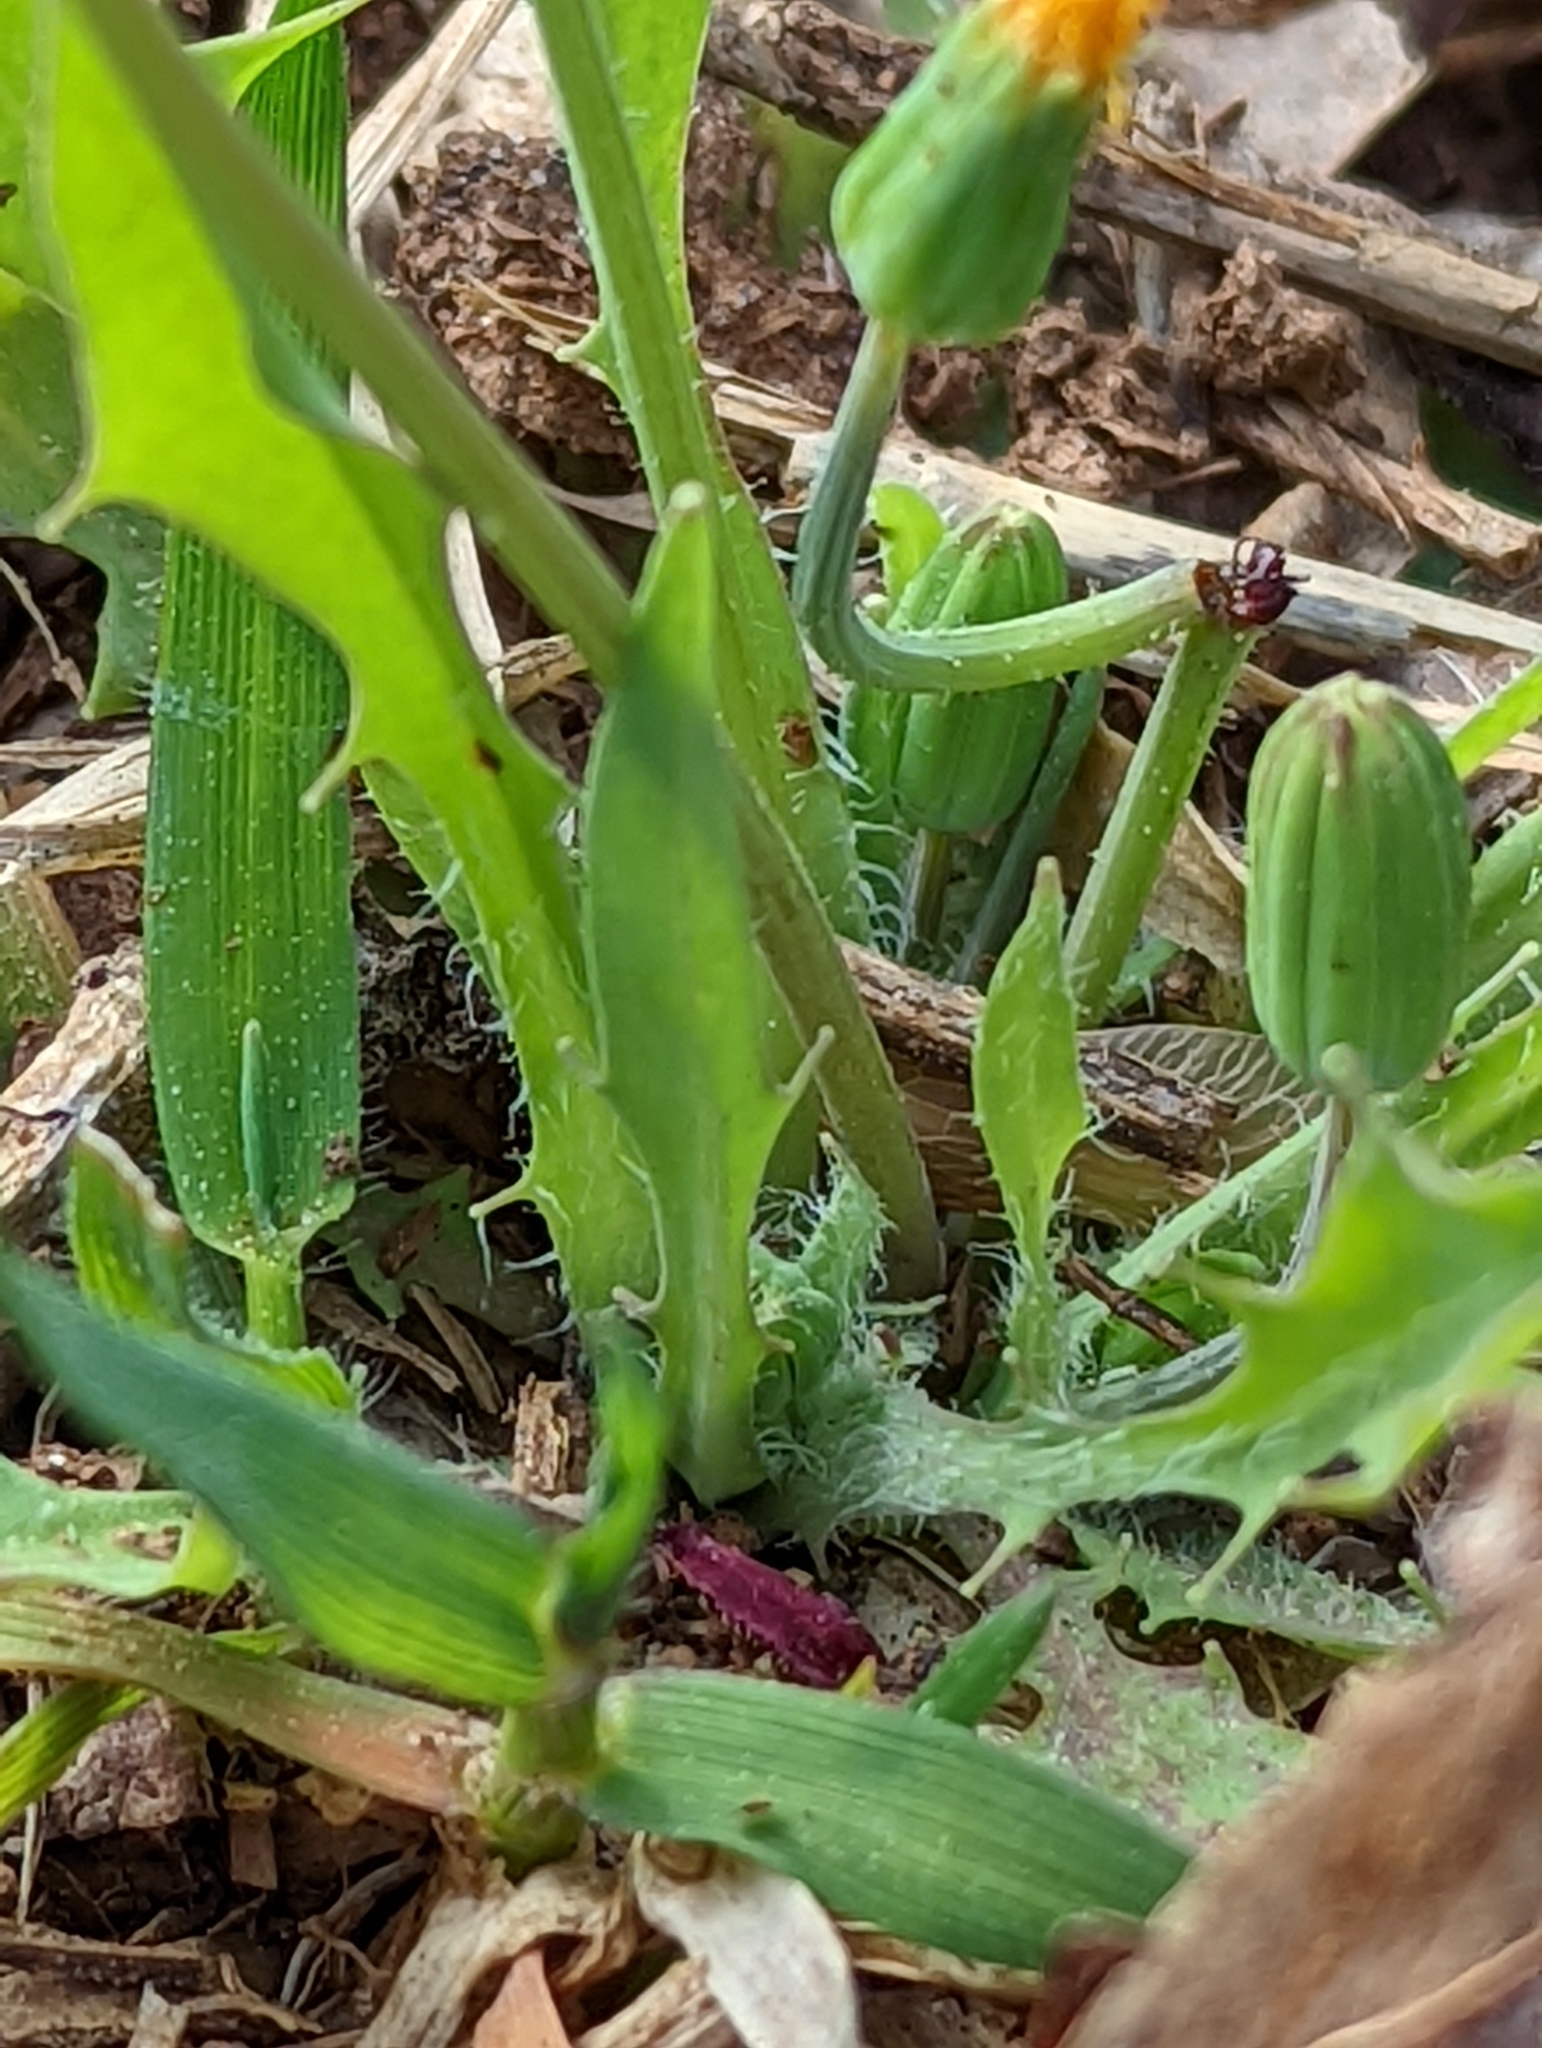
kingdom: Plantae
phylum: Tracheophyta
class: Magnoliopsida
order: Asterales
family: Asteraceae
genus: Krigia
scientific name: Krigia virginica
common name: Virginia dwarf-dandelion
